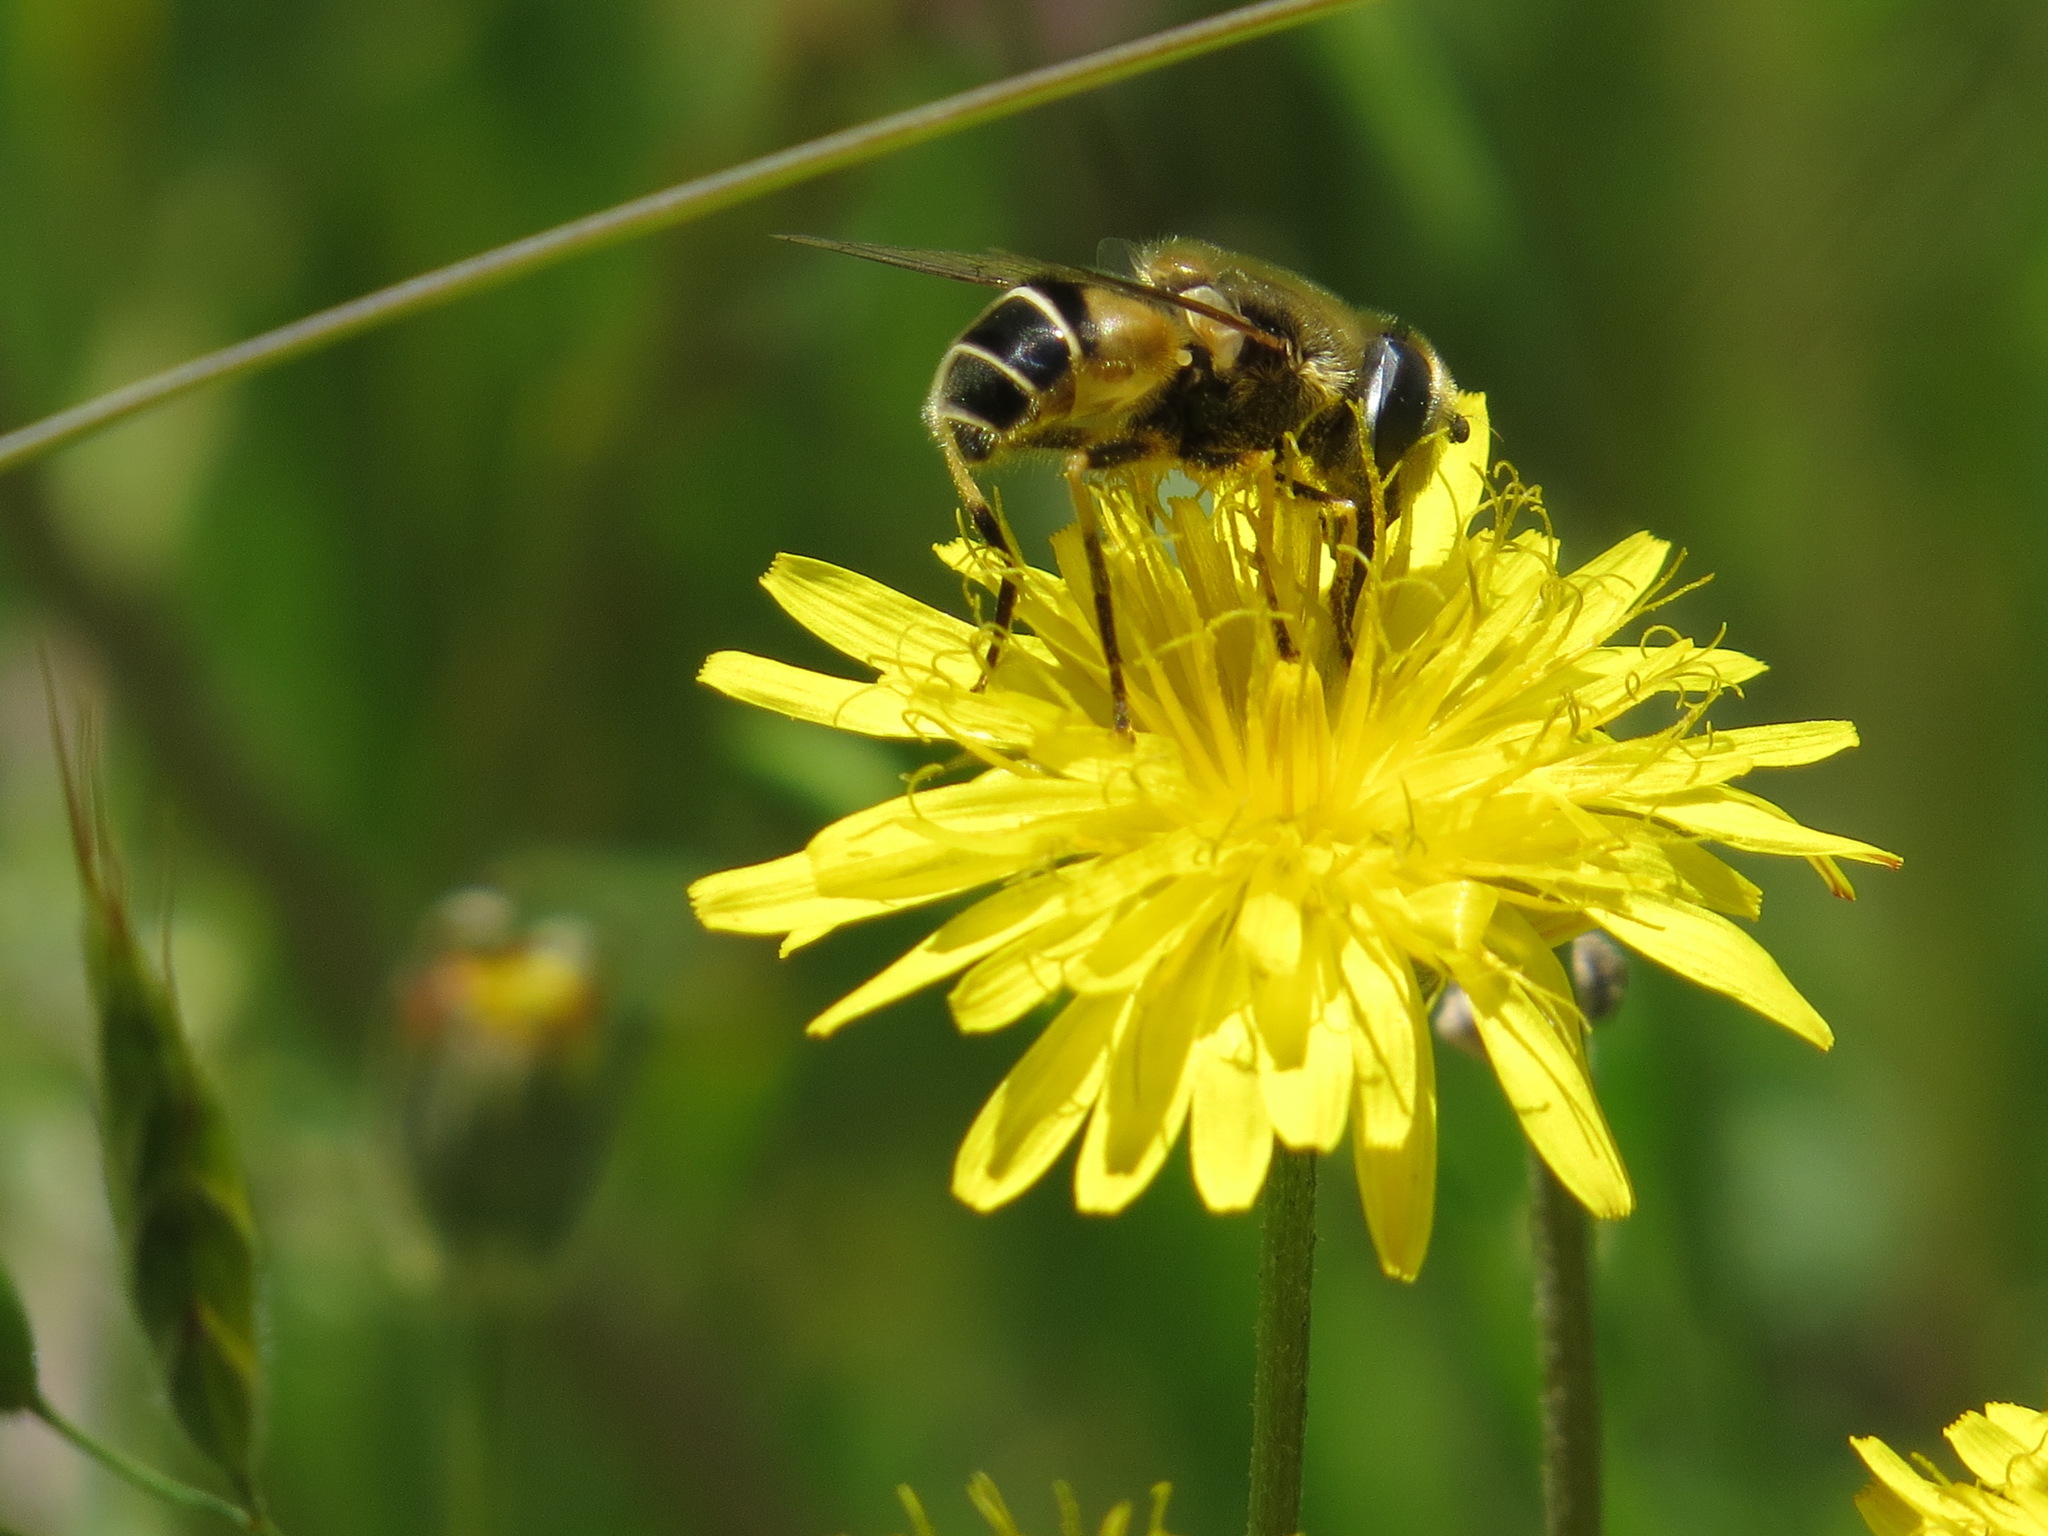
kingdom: Animalia
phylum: Arthropoda
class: Insecta
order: Diptera
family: Syrphidae
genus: Eristalis
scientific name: Eristalis hirta
